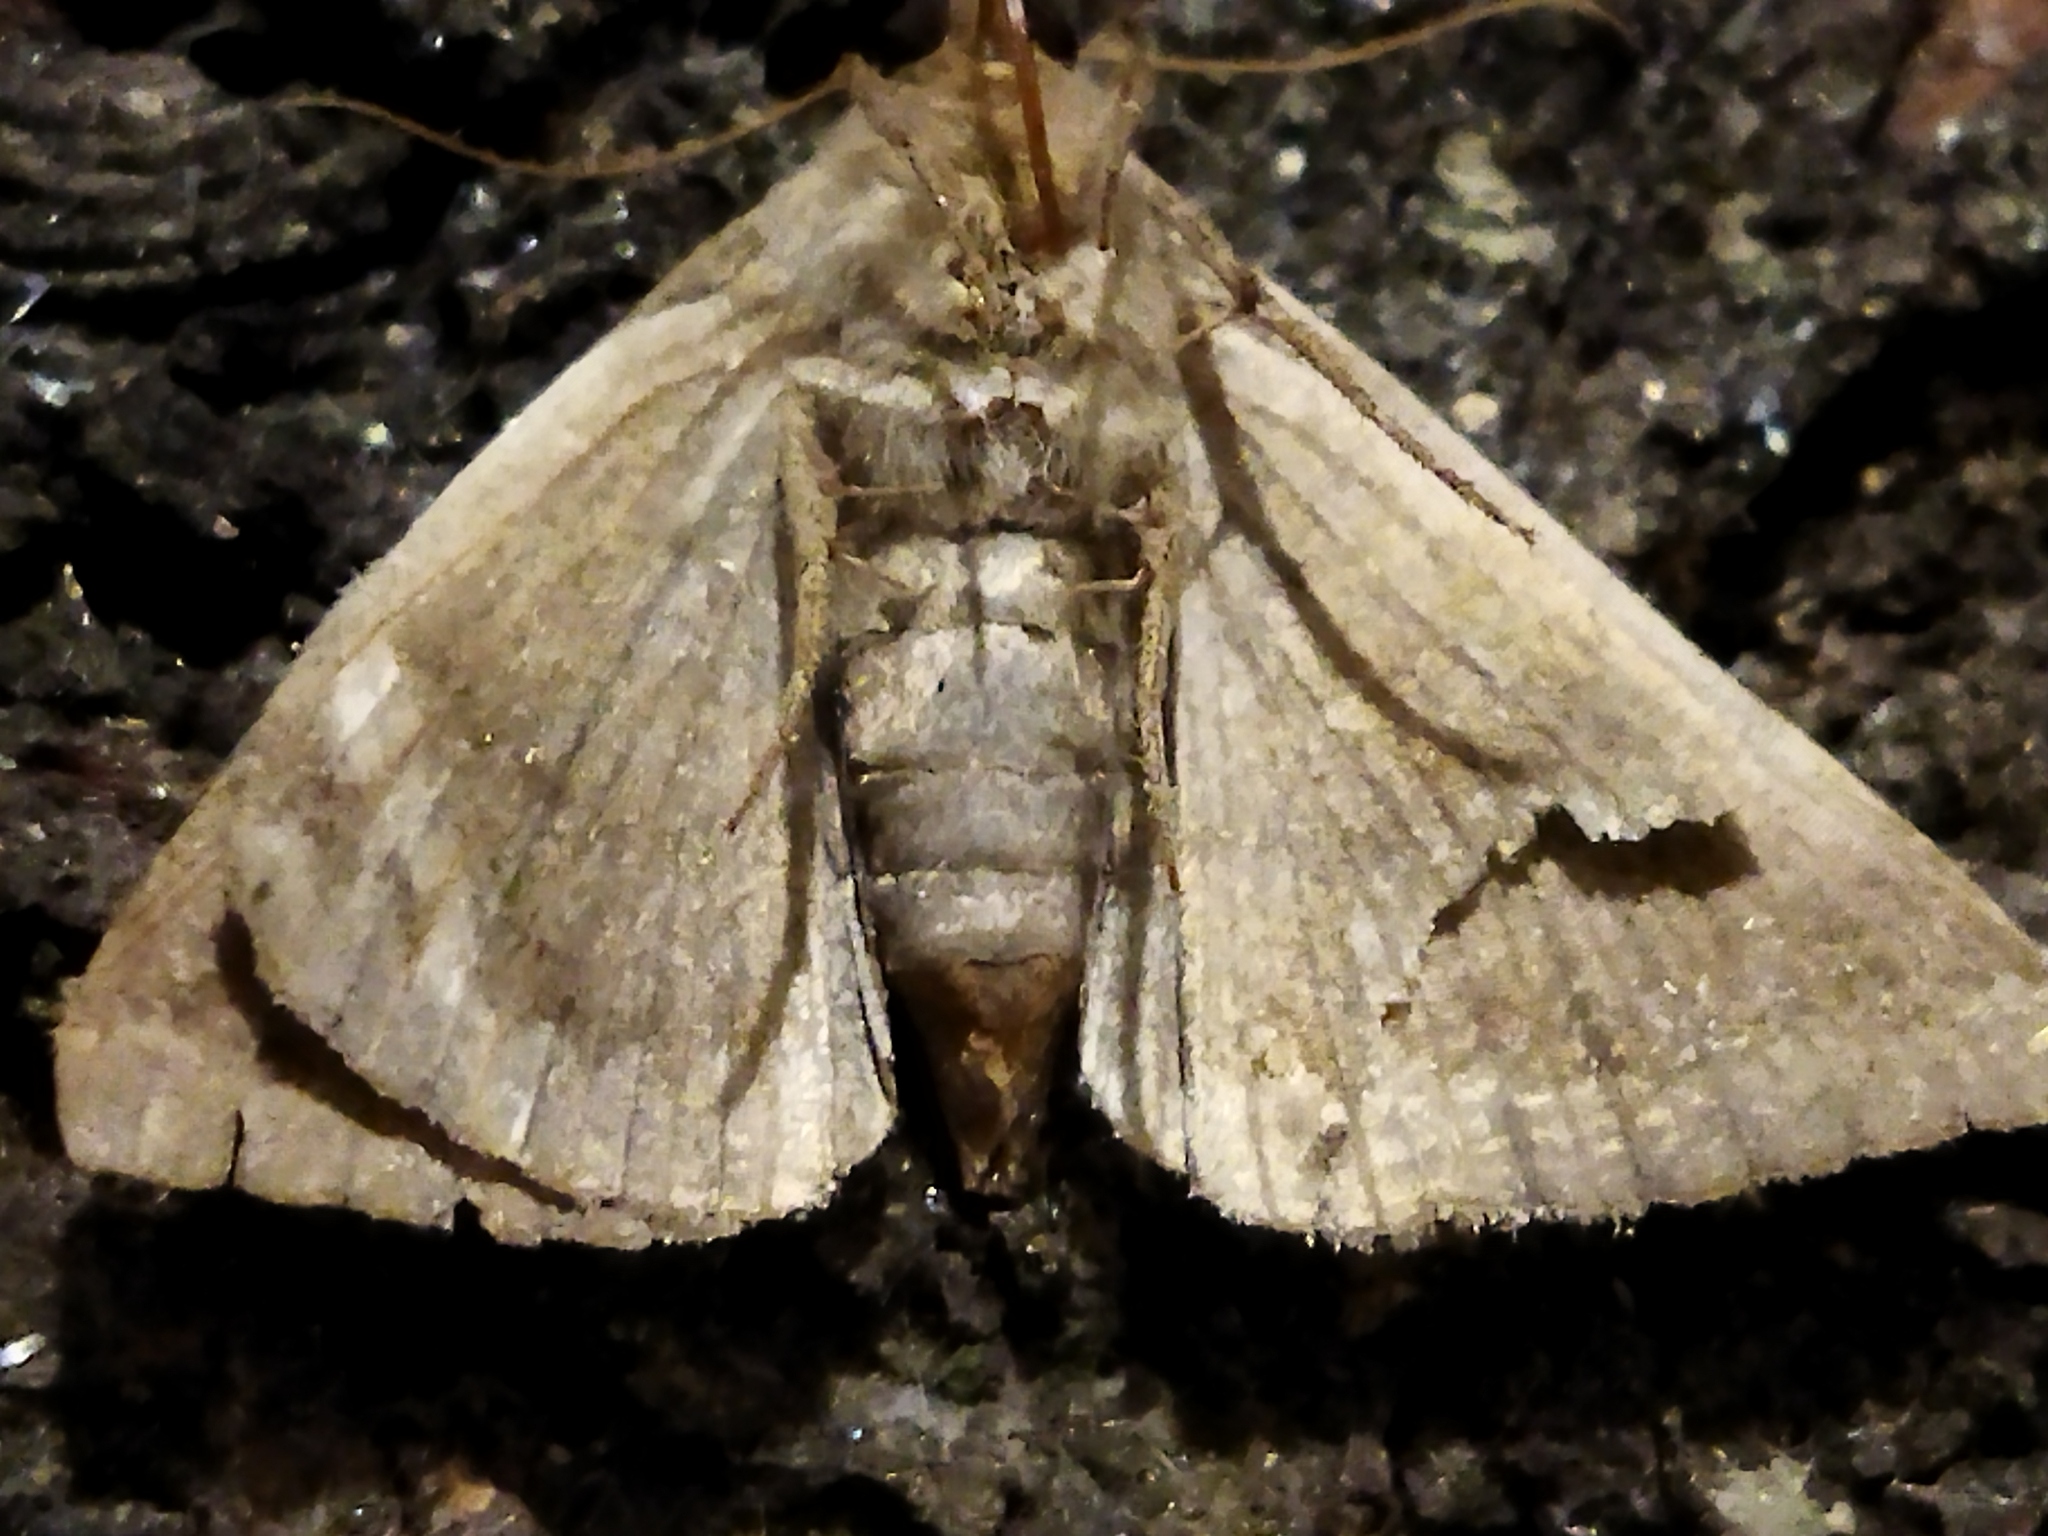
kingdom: Animalia
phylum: Arthropoda
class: Insecta
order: Lepidoptera
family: Erebidae
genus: Dysgonia
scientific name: Dysgonia algira
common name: Passenger
